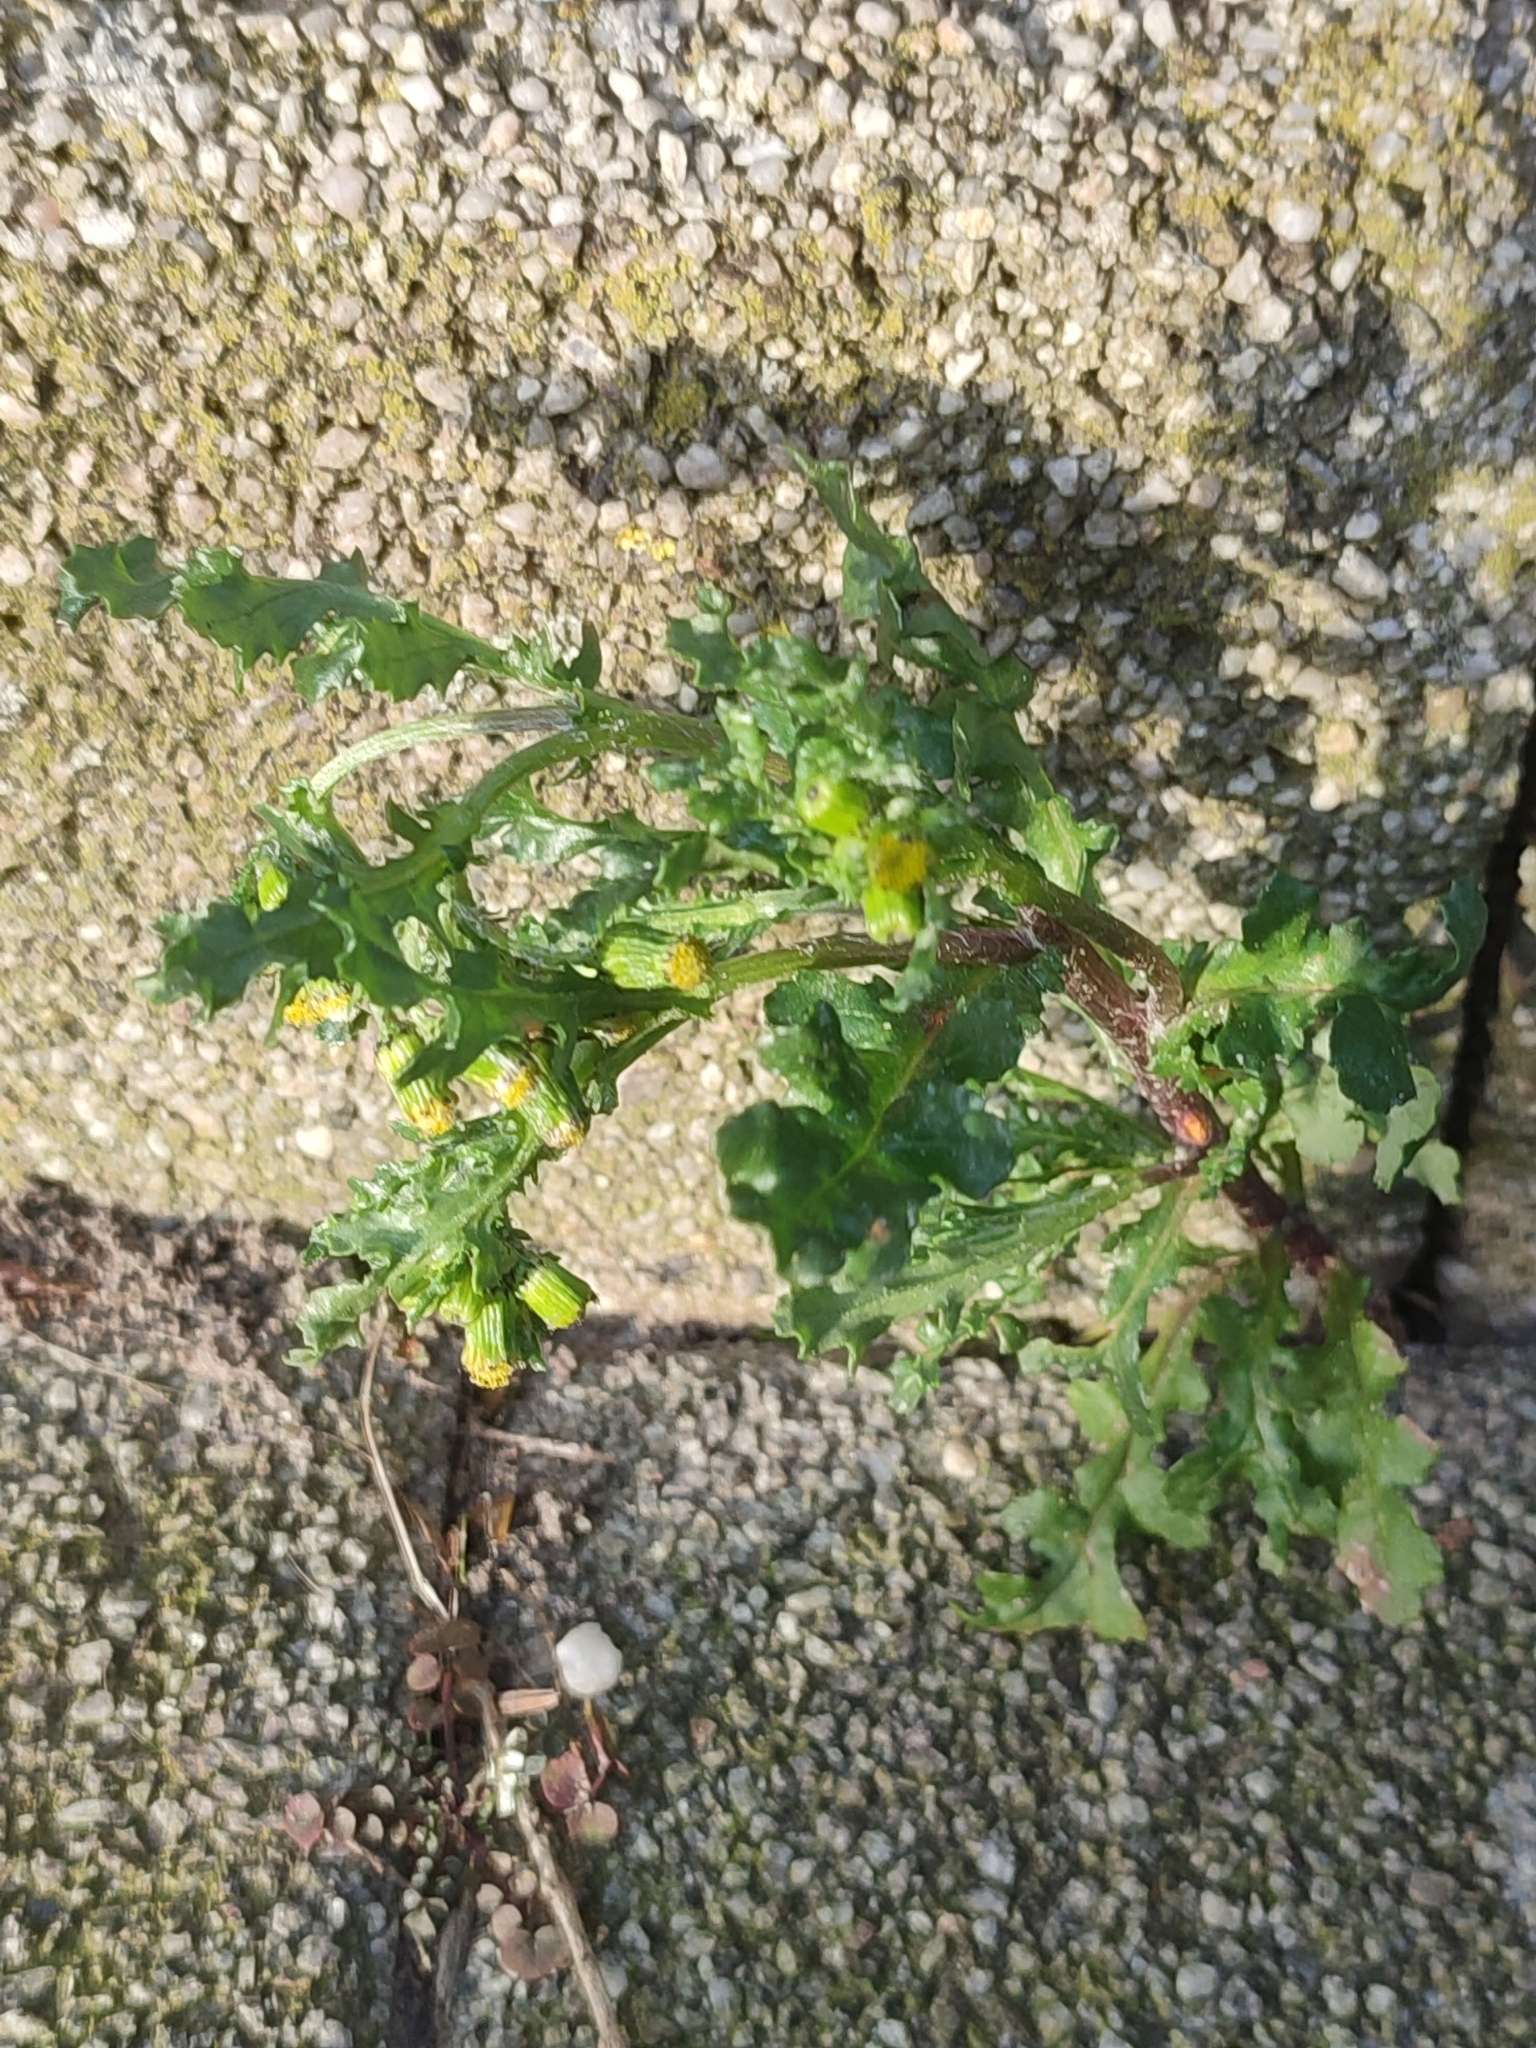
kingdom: Plantae
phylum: Tracheophyta
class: Magnoliopsida
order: Asterales
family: Asteraceae
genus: Senecio
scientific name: Senecio vulgaris
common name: Old-man-in-the-spring
